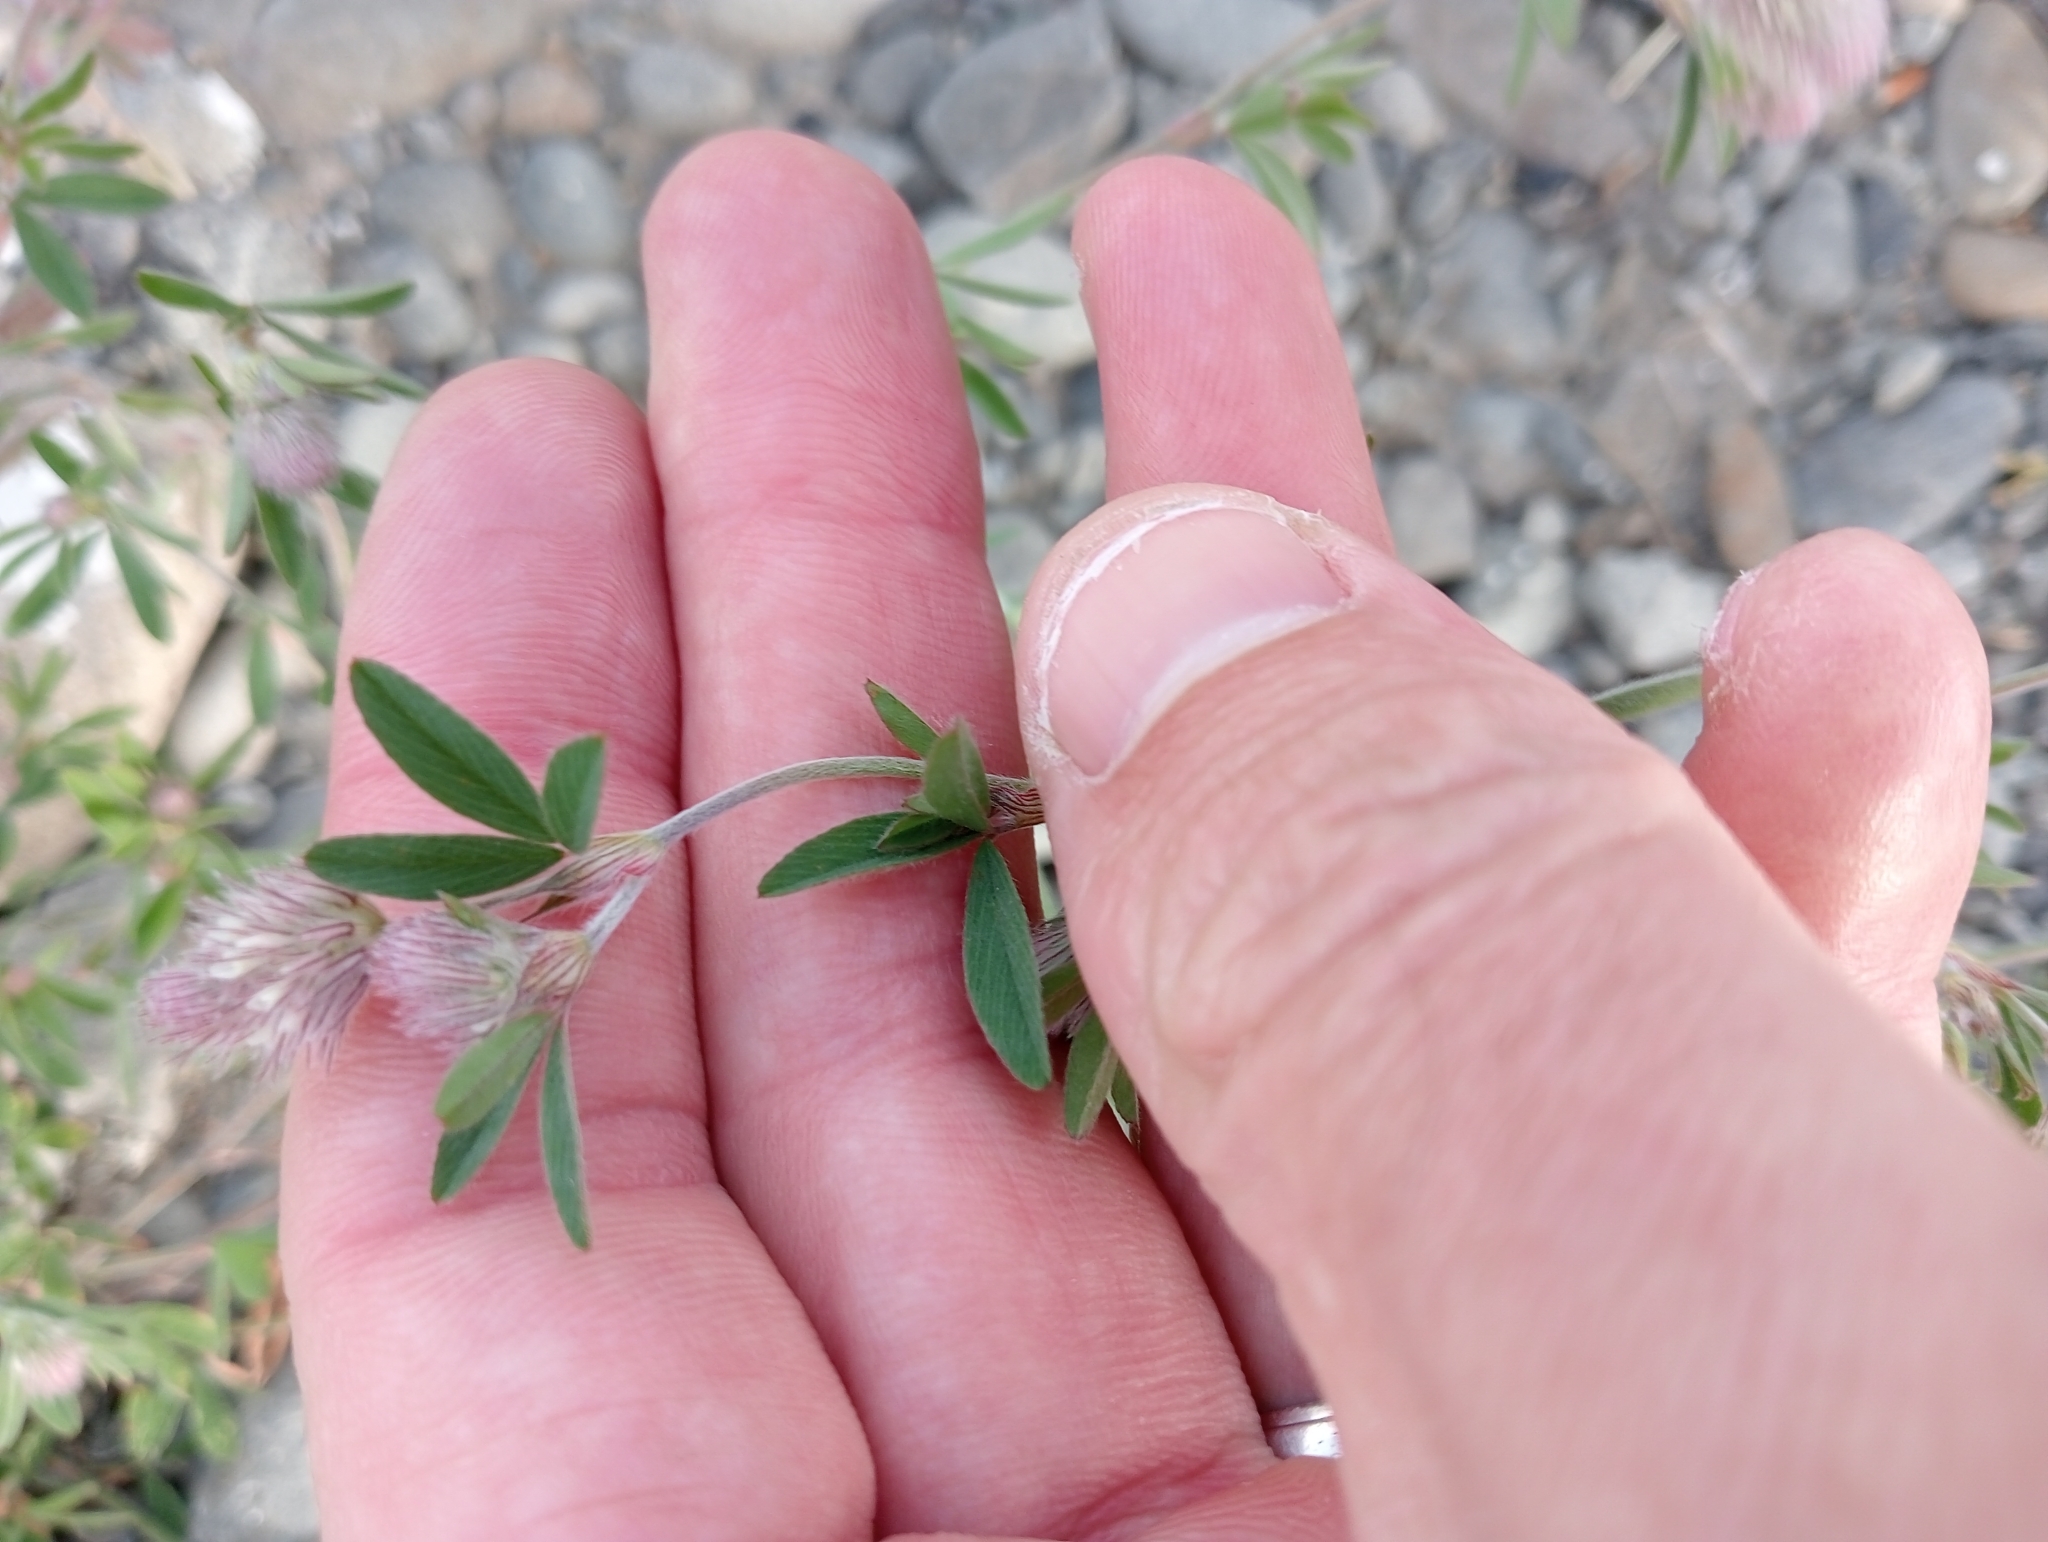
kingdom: Plantae
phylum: Tracheophyta
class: Magnoliopsida
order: Fabales
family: Fabaceae
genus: Trifolium
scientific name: Trifolium arvense
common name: Hare's-foot clover
